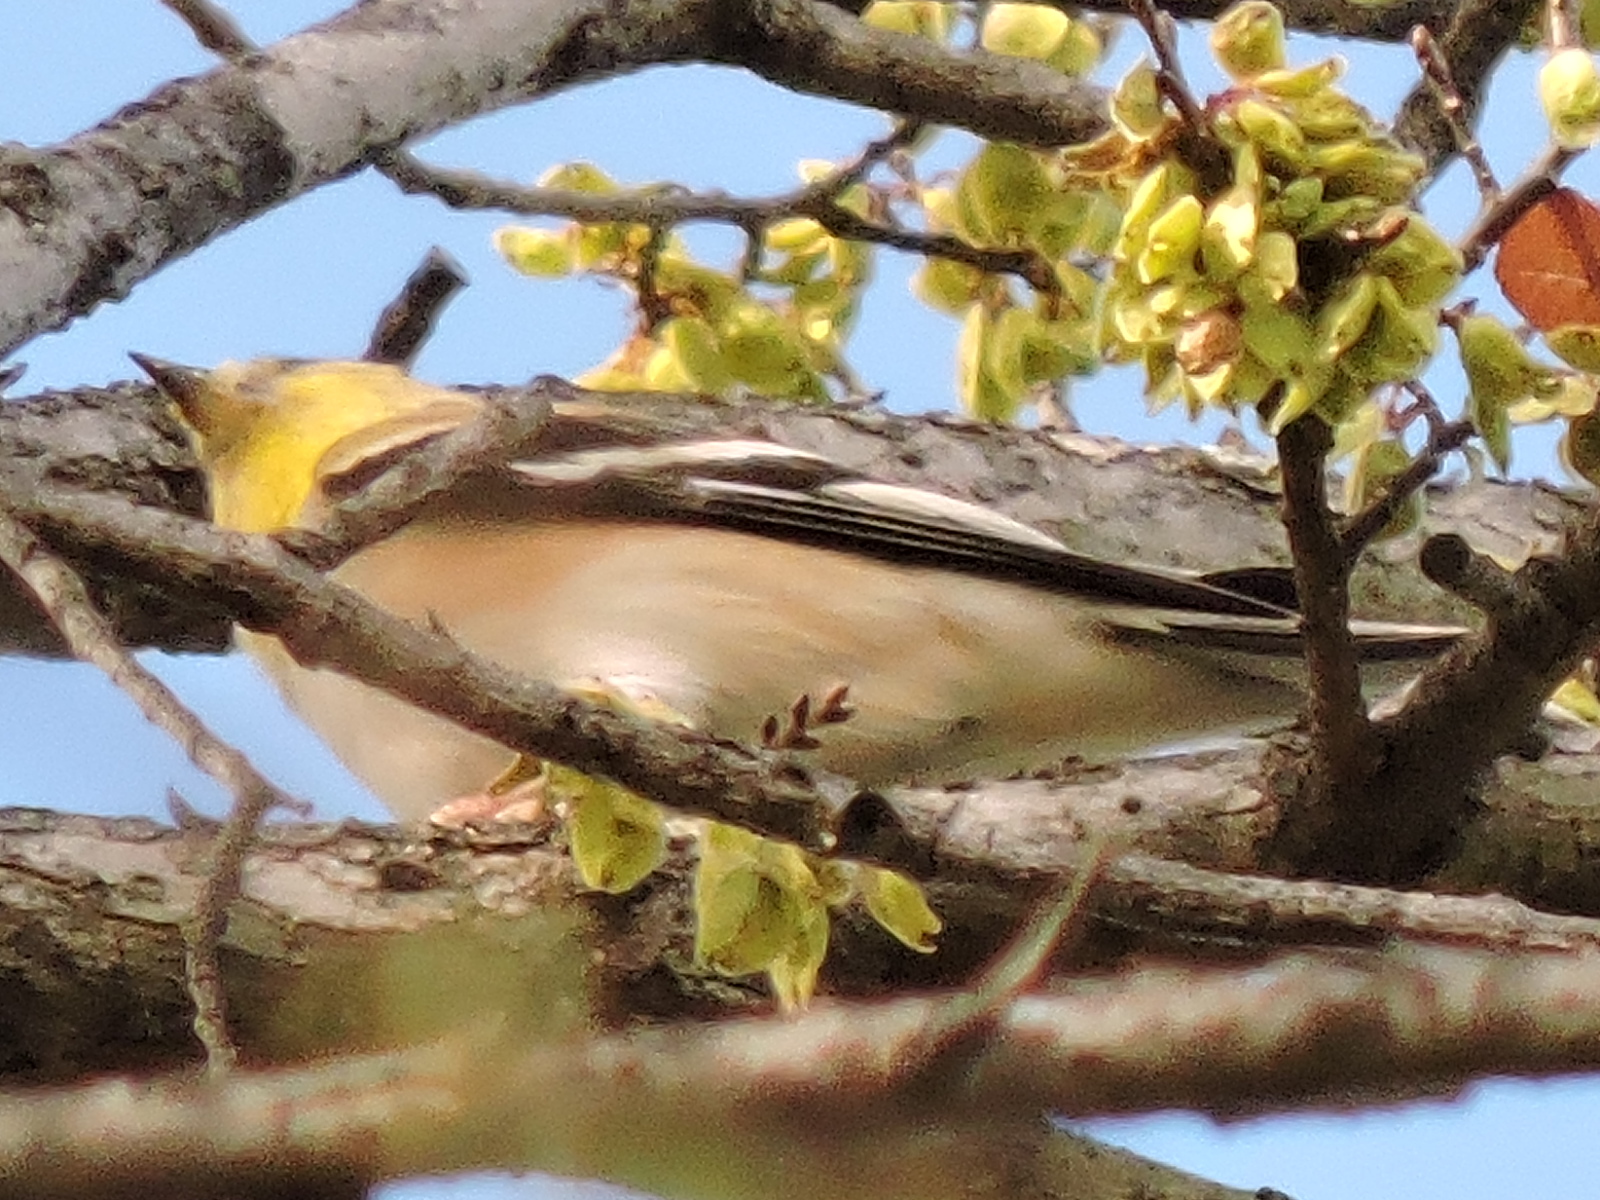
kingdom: Animalia
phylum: Chordata
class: Aves
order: Passeriformes
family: Fringillidae
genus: Spinus
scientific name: Spinus tristis
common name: American goldfinch
